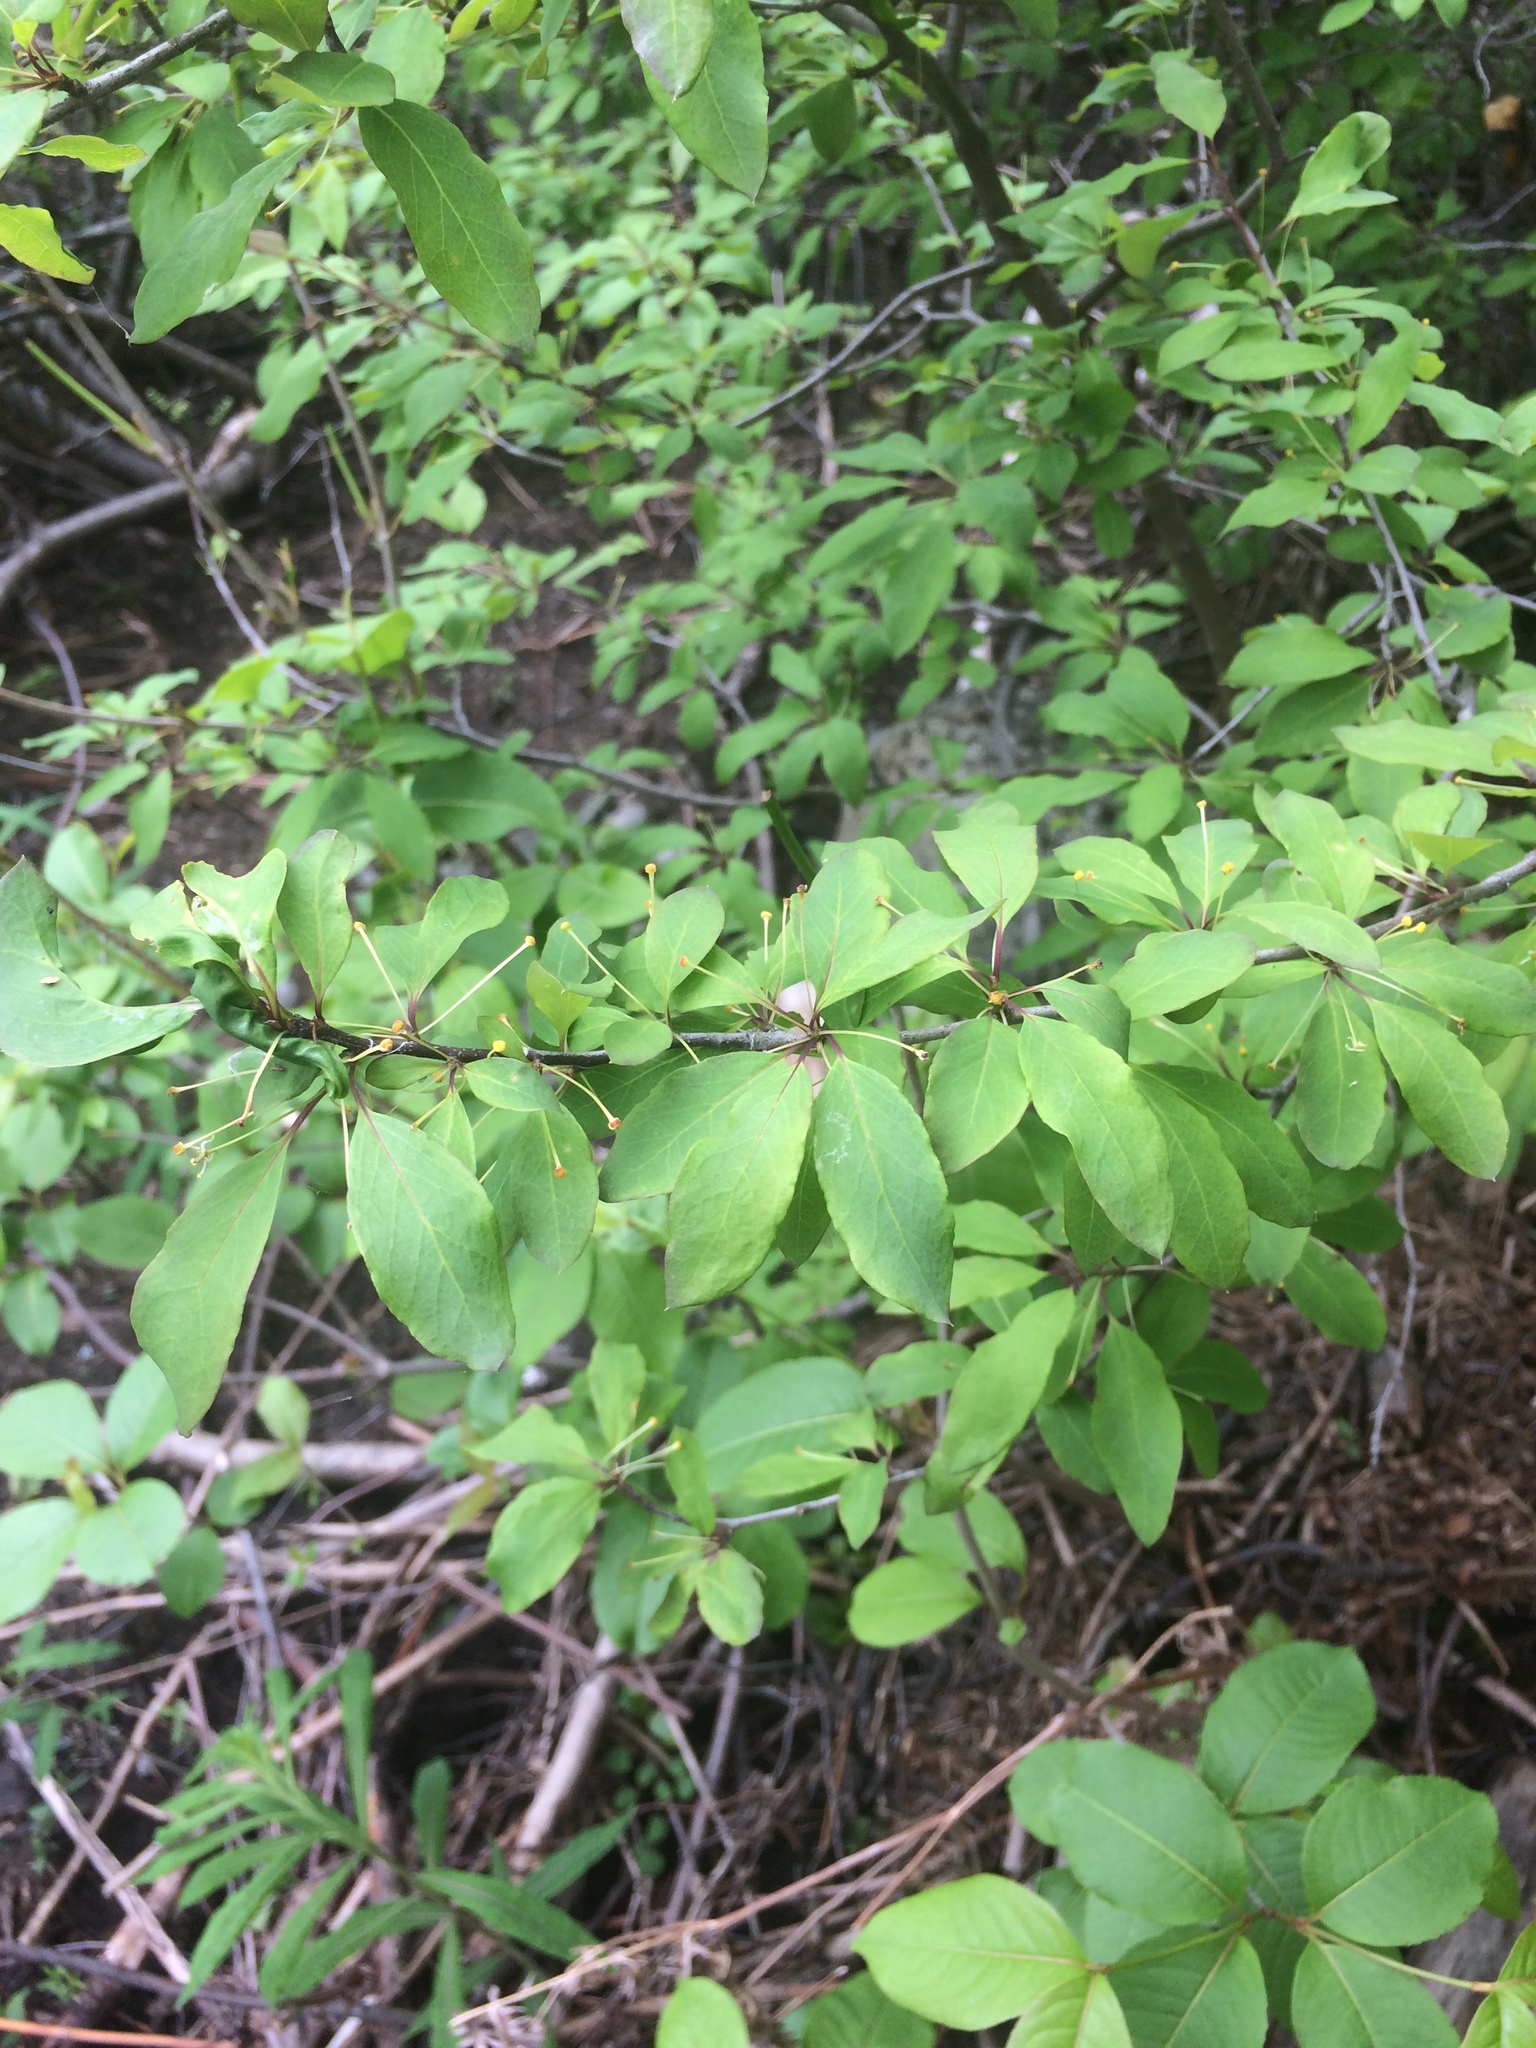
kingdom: Plantae
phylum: Tracheophyta
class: Magnoliopsida
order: Aquifoliales
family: Aquifoliaceae
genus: Ilex
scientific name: Ilex mucronata
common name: Catberry
